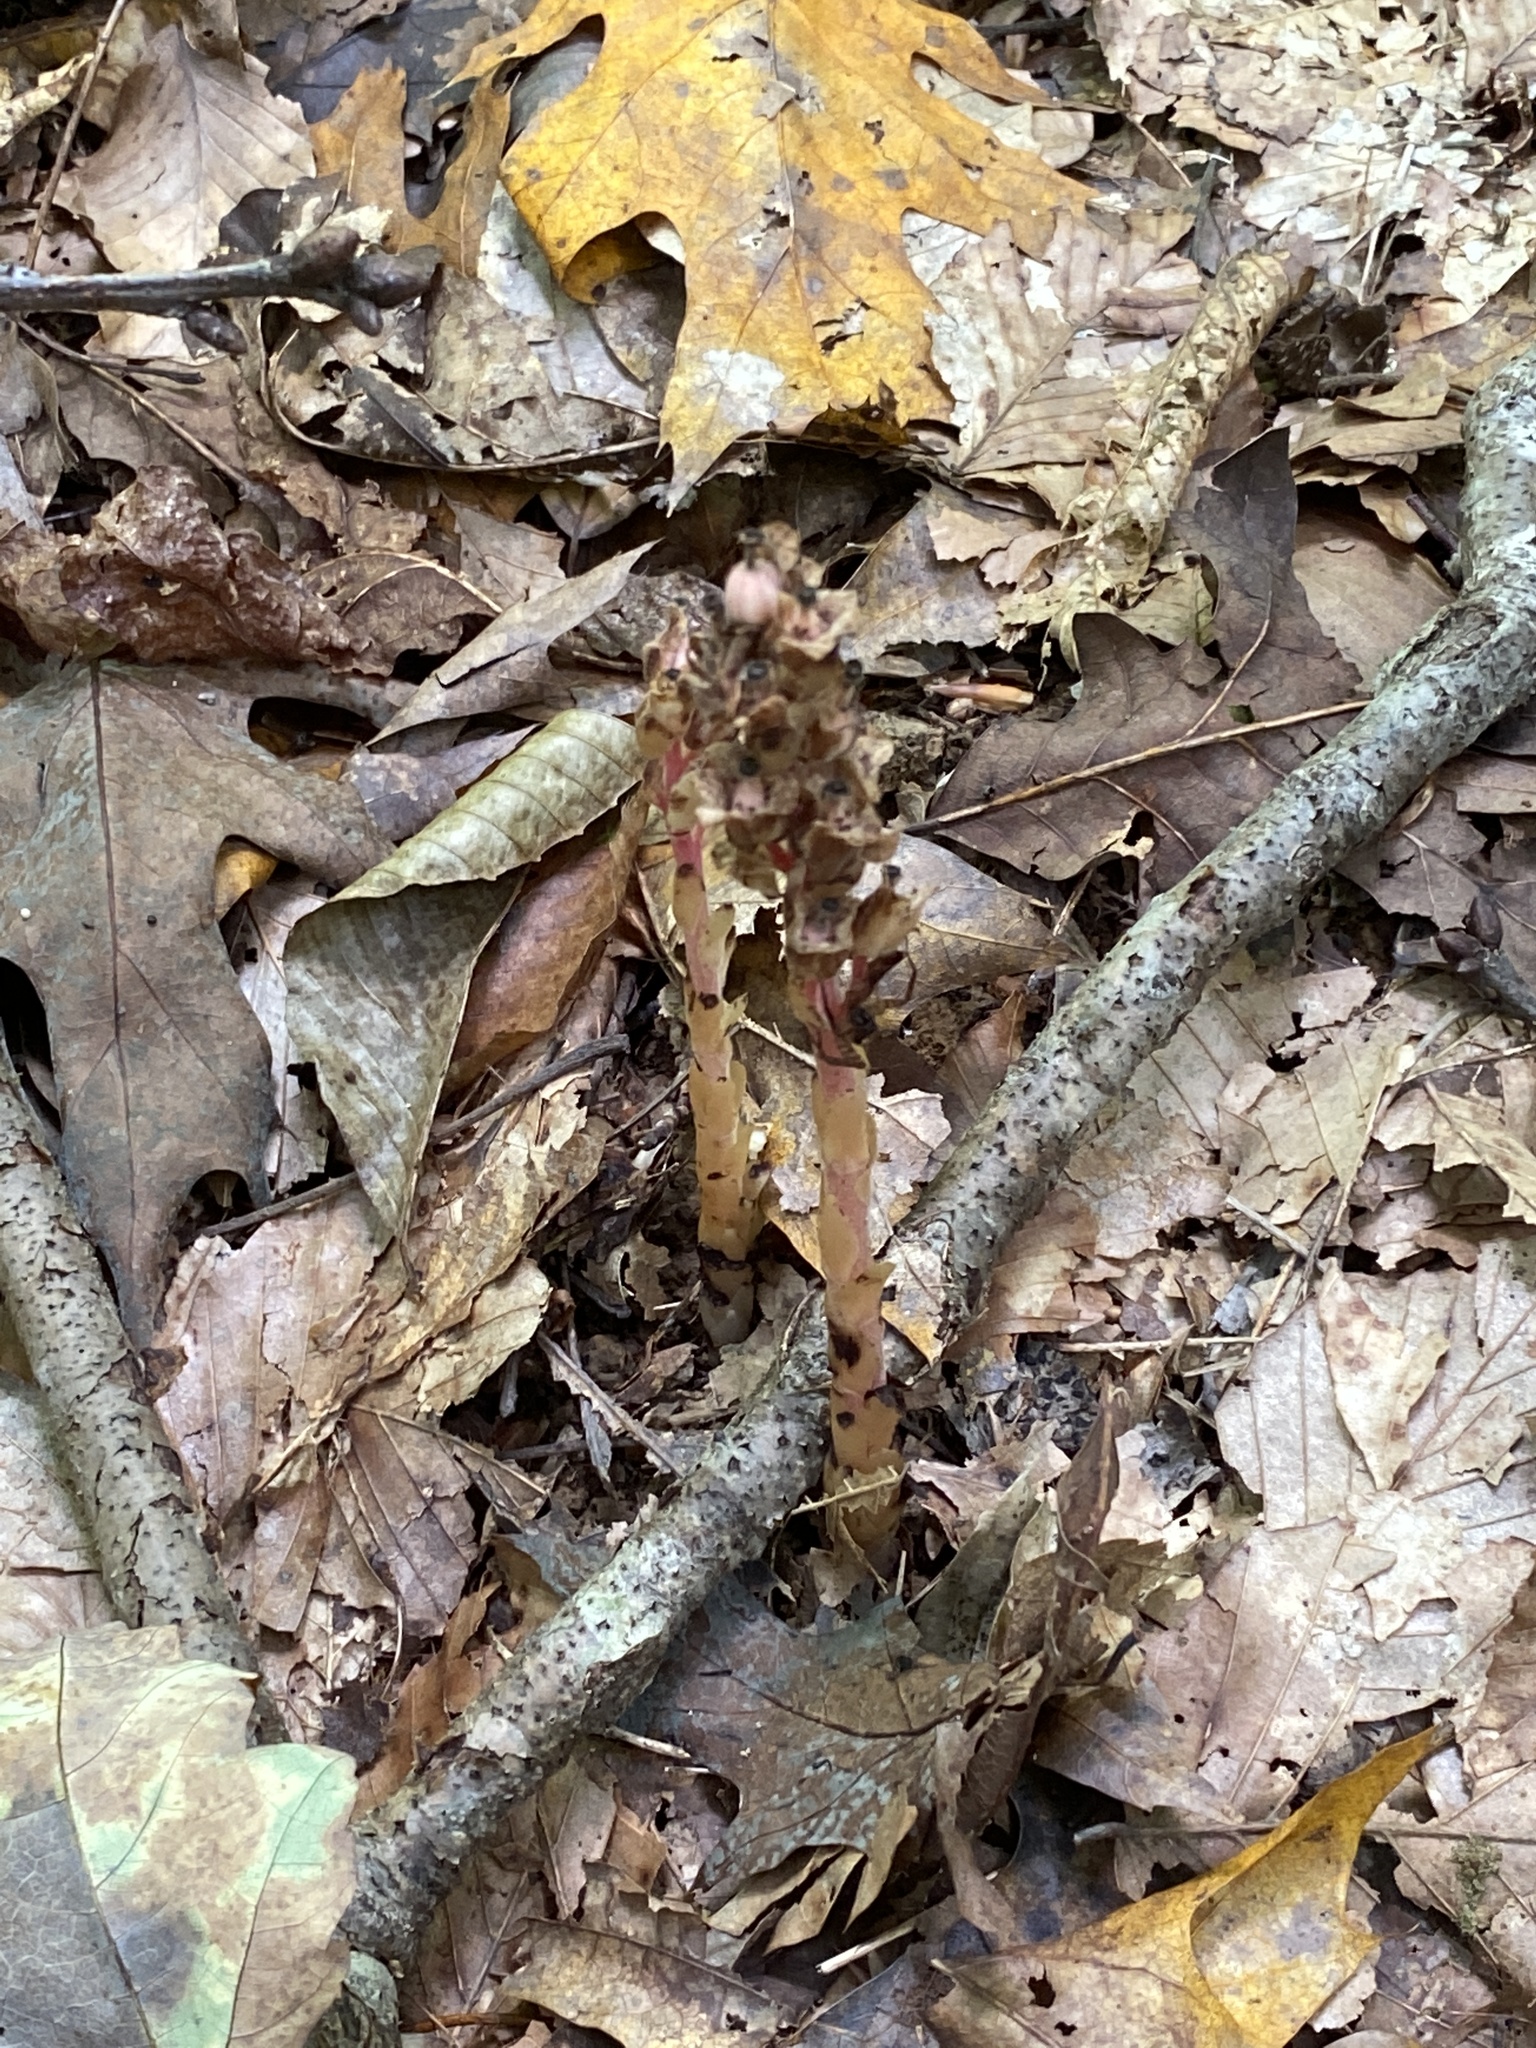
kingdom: Plantae
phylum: Tracheophyta
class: Magnoliopsida
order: Ericales
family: Ericaceae
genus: Hypopitys
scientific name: Hypopitys monotropa
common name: Yellow bird's-nest
